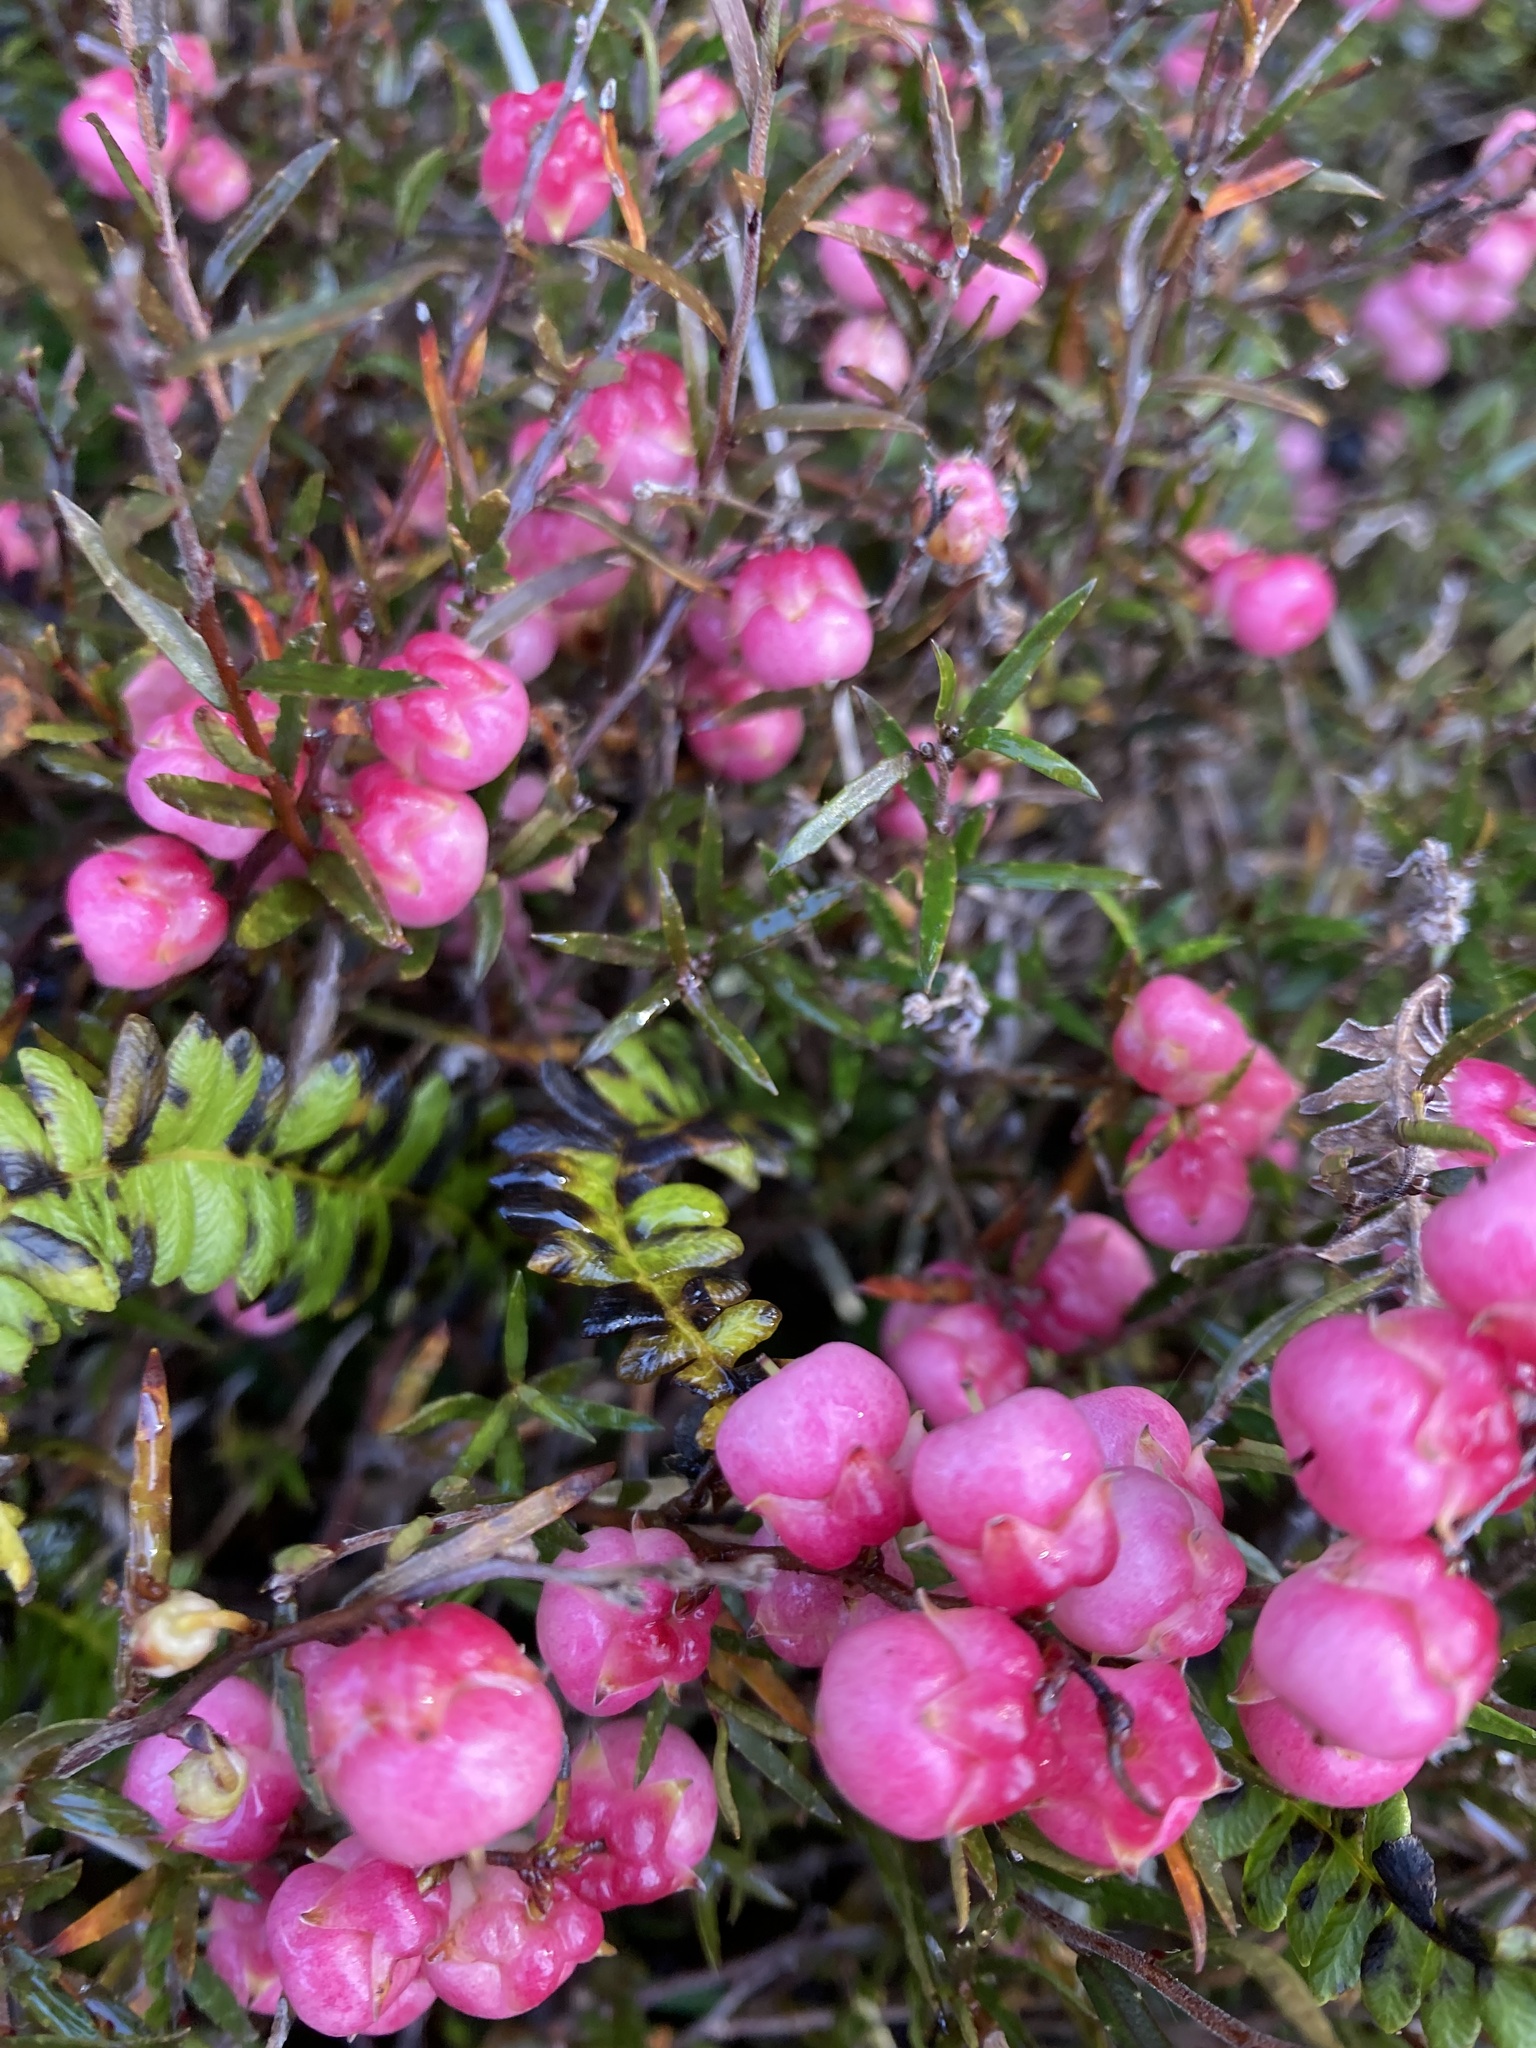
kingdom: Plantae
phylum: Tracheophyta
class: Magnoliopsida
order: Ericales
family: Ericaceae
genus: Gaultheria
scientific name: Gaultheria macrostigma
